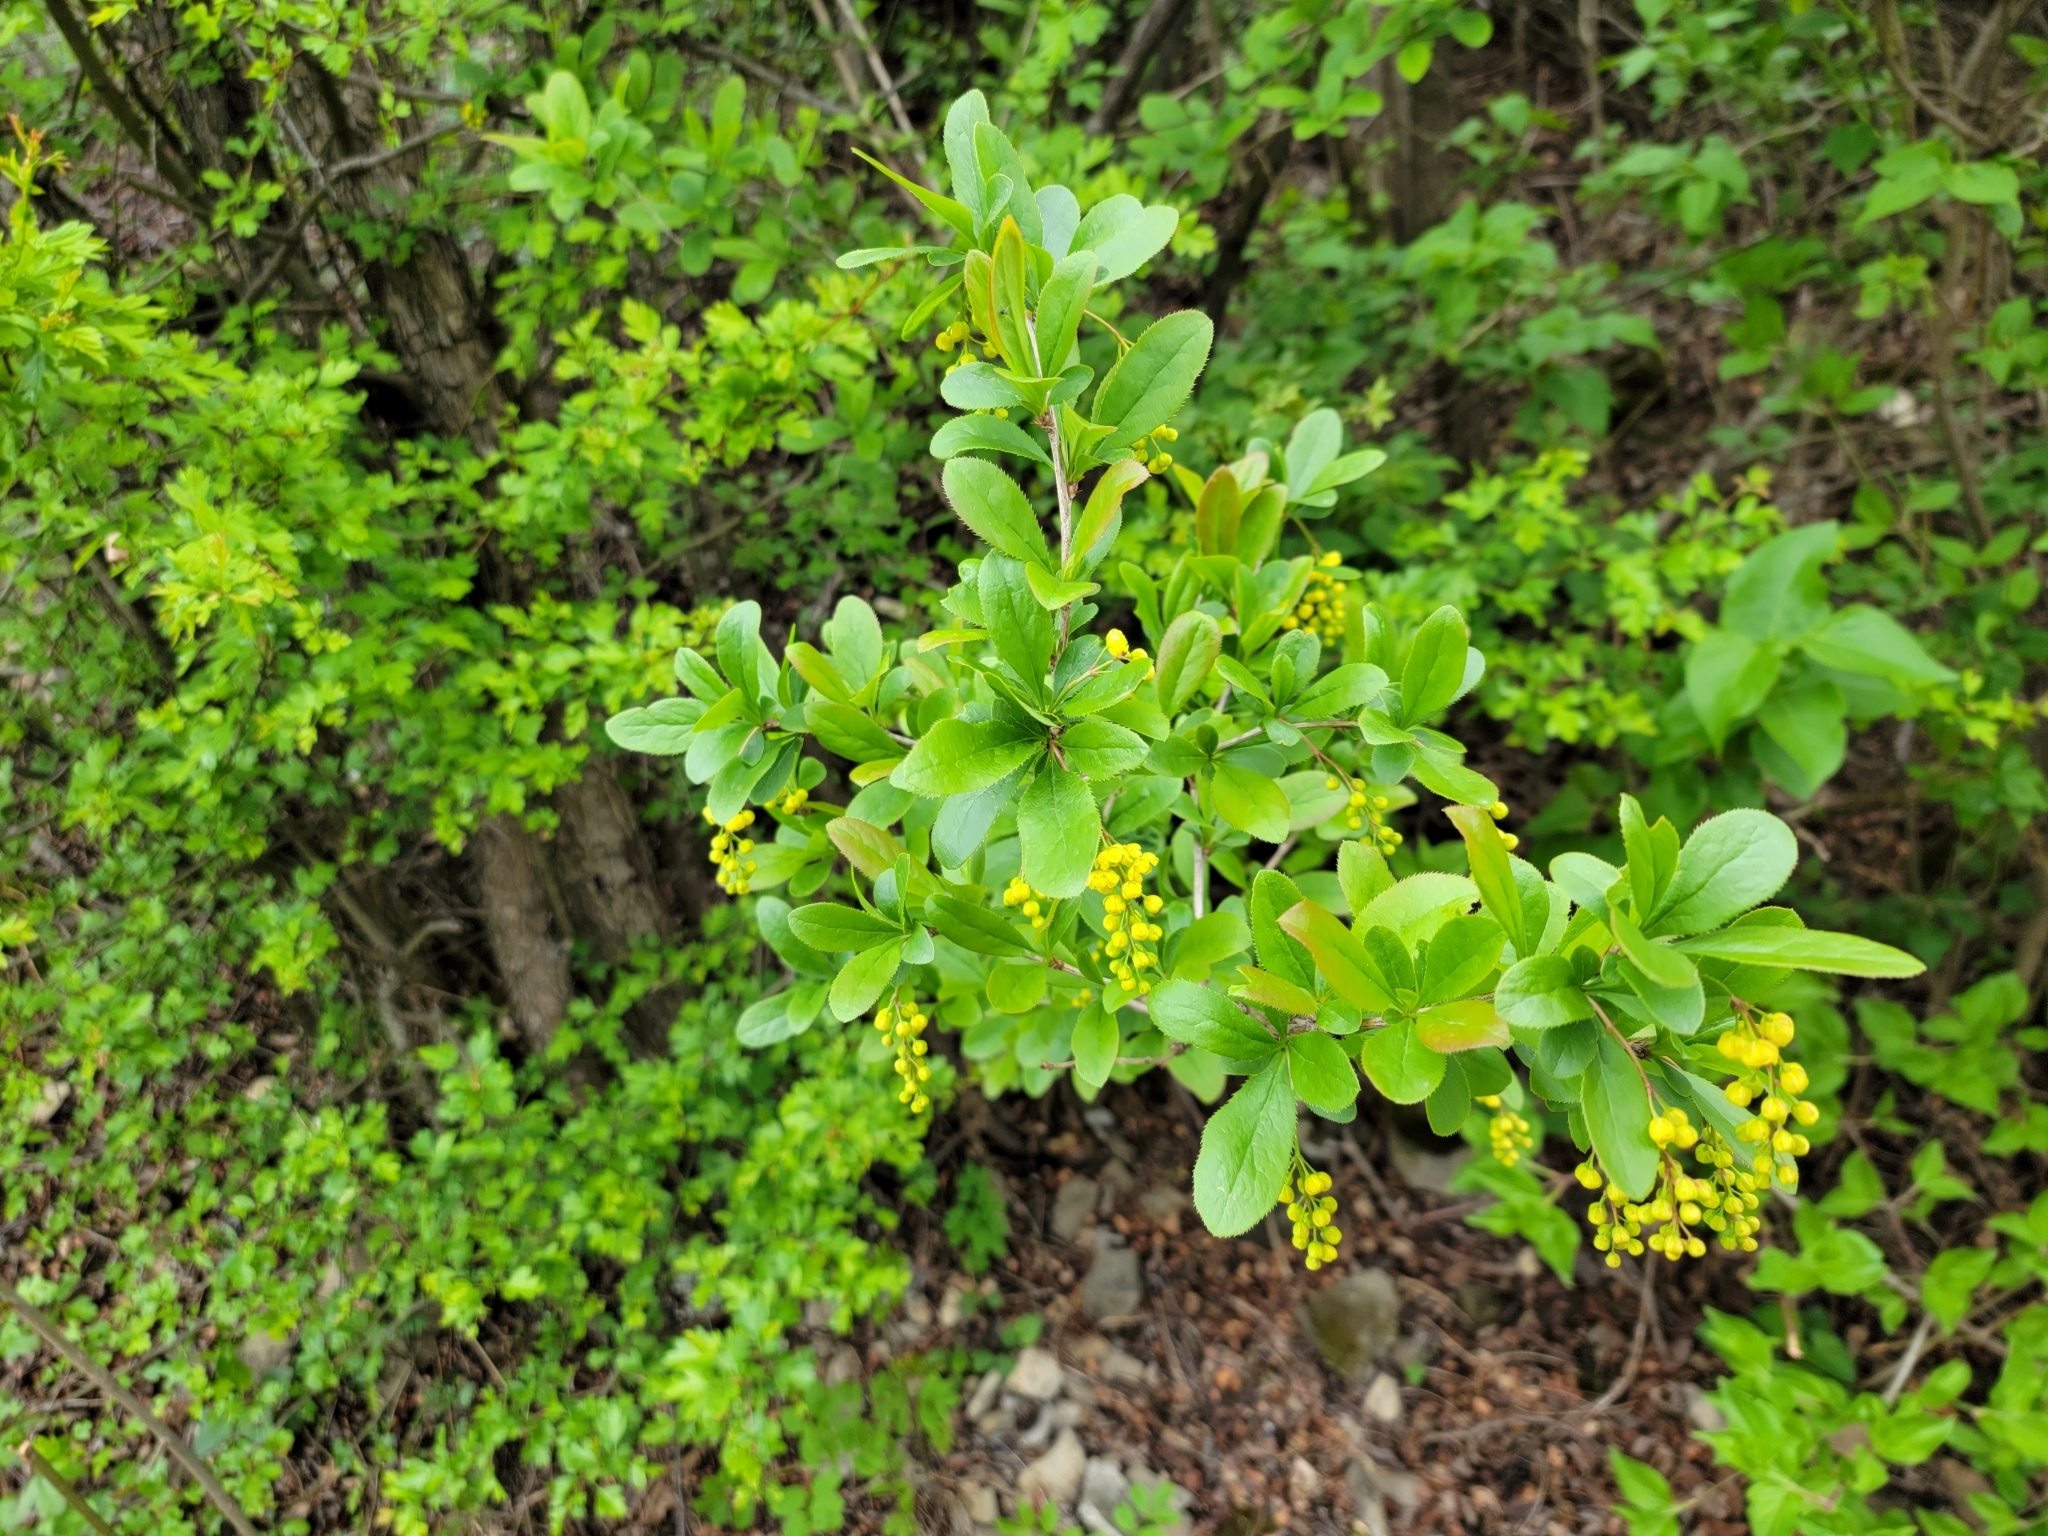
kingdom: Plantae
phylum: Tracheophyta
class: Magnoliopsida
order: Ranunculales
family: Berberidaceae
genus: Berberis
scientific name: Berberis vulgaris
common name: Barberry
